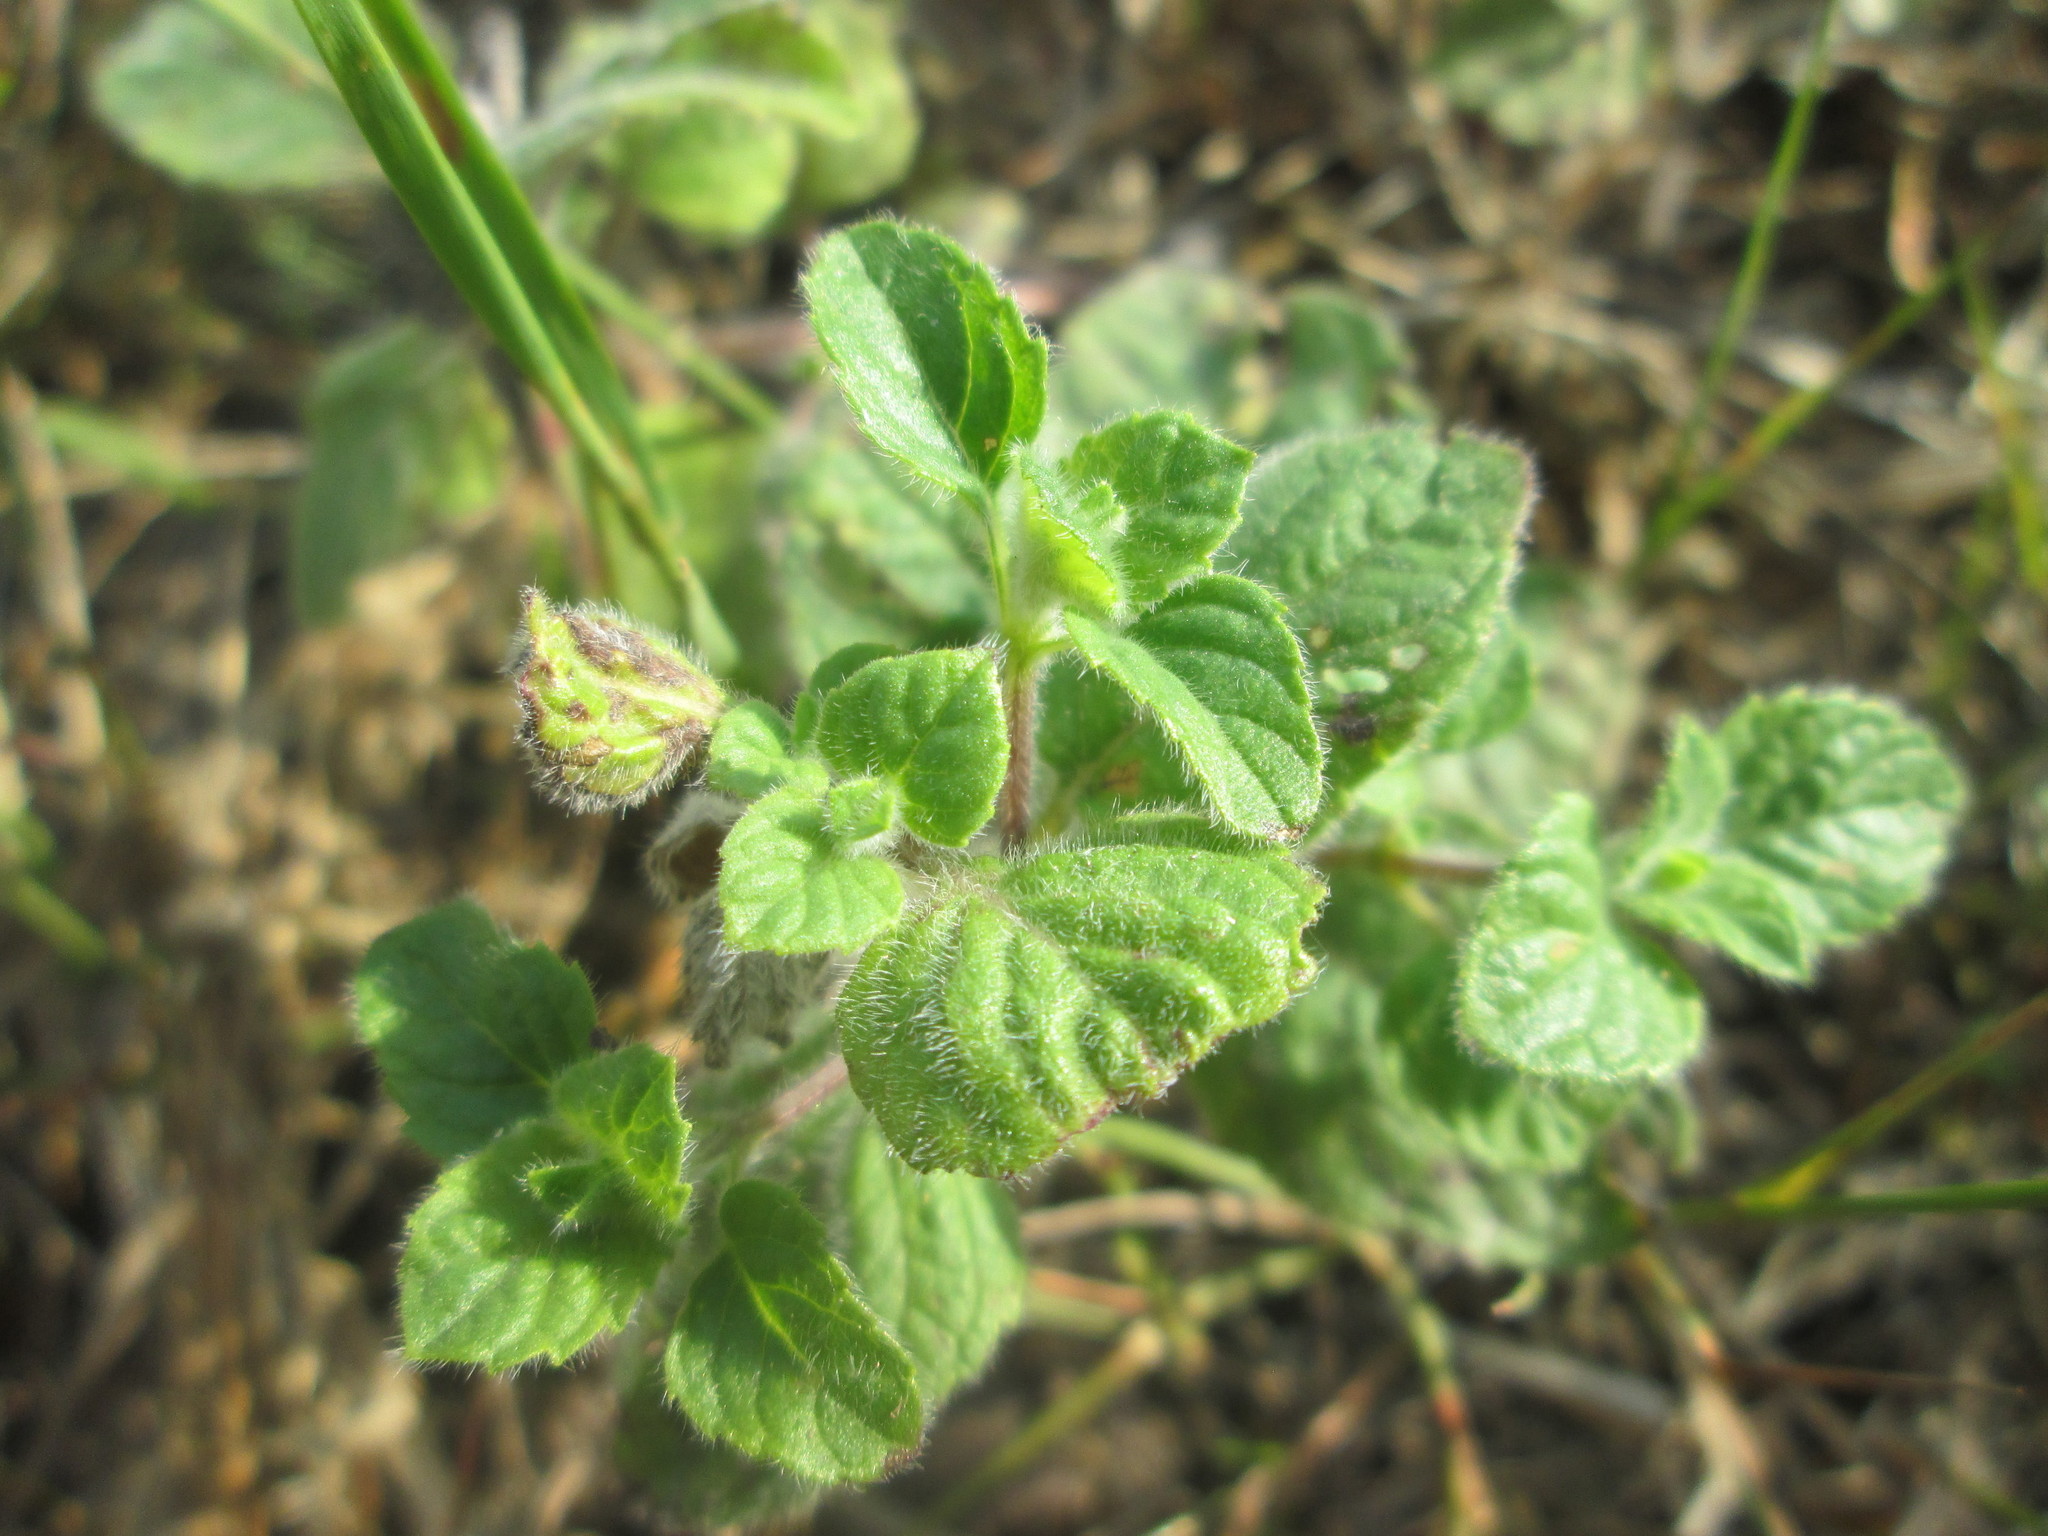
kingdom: Plantae
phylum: Tracheophyta
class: Magnoliopsida
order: Lamiales
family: Lamiaceae
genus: Origanum
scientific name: Origanum vulgare
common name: Wild marjoram
